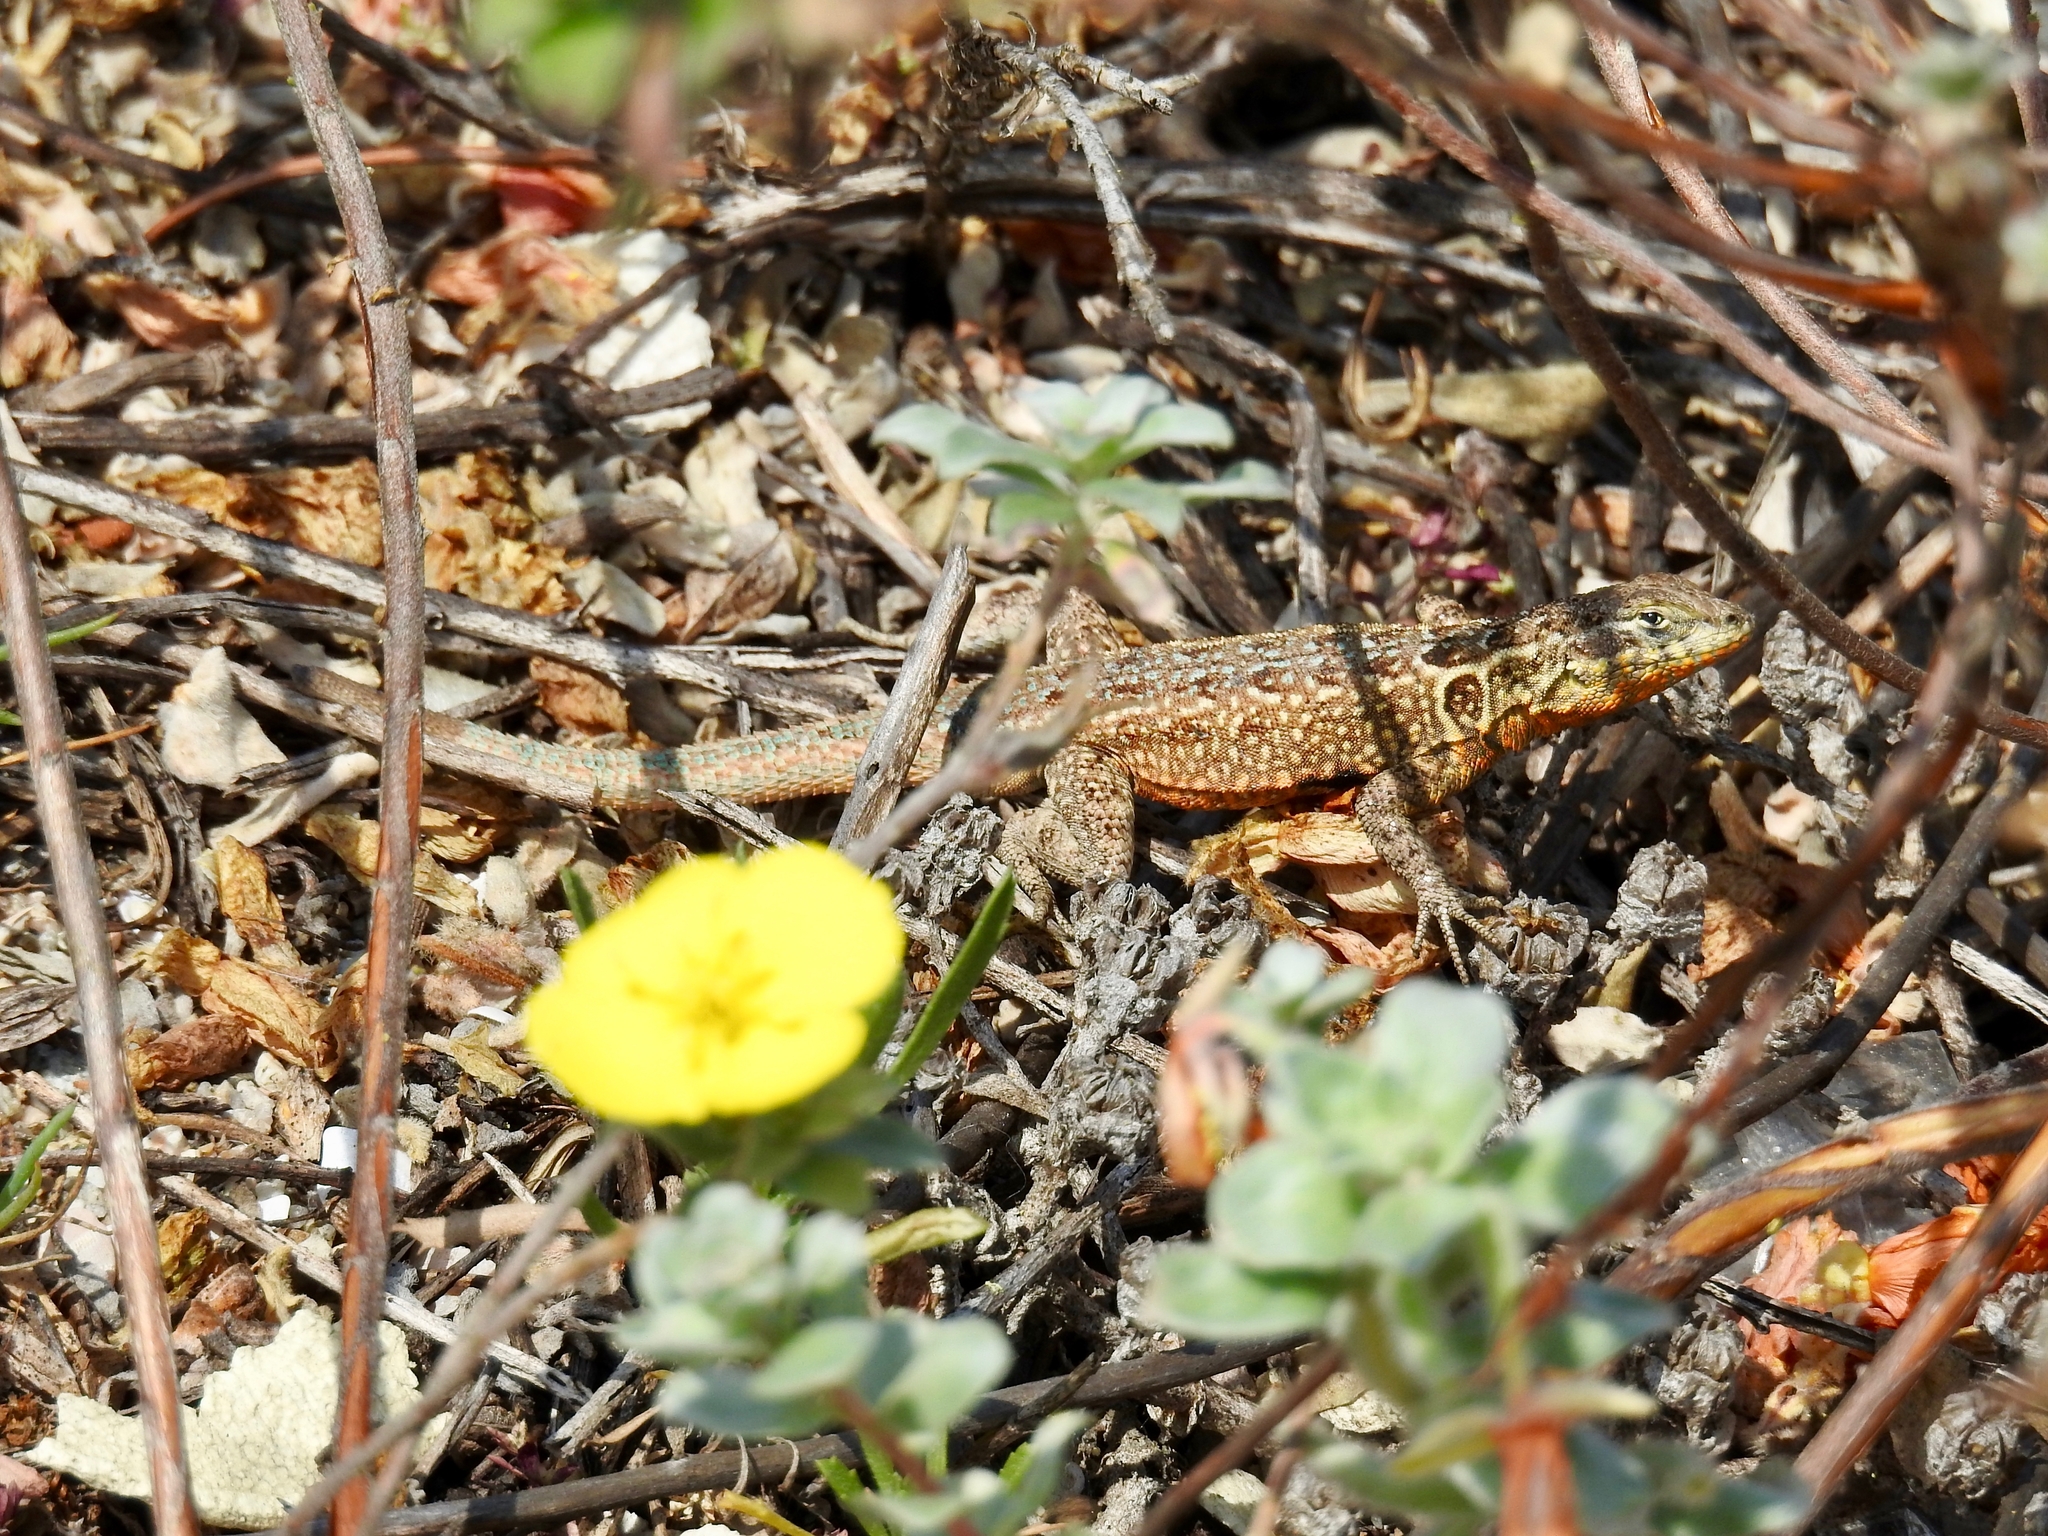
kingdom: Animalia
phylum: Chordata
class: Squamata
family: Phrynosomatidae
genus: Uta
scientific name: Uta stansburiana
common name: Side-blotched lizard
